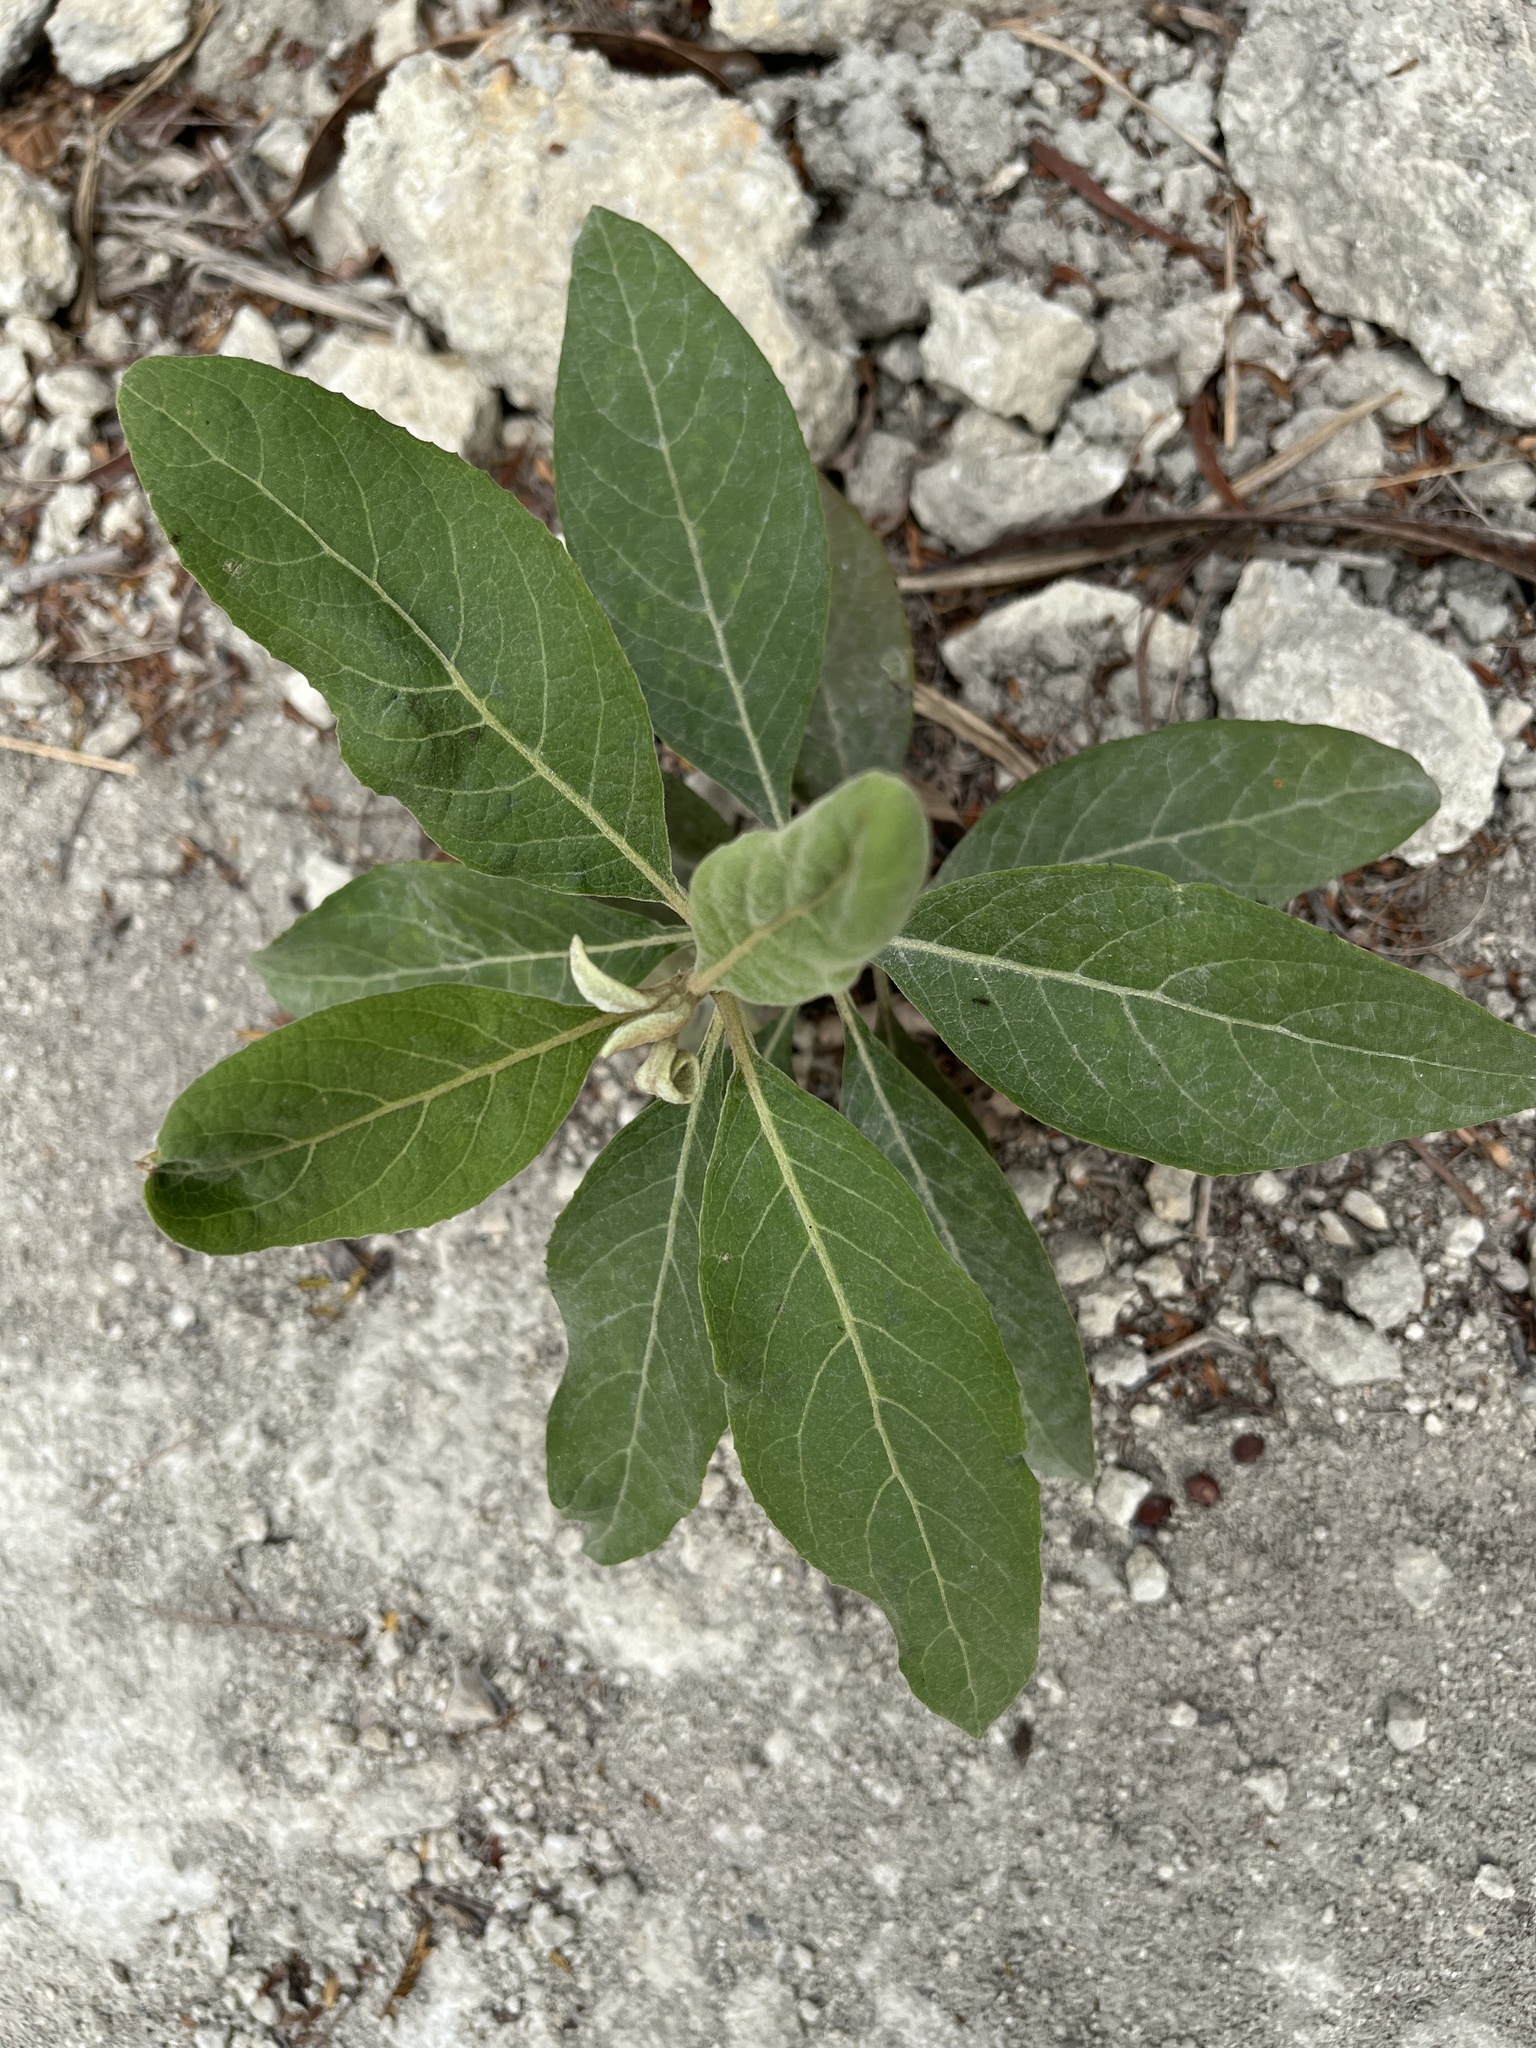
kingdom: Plantae
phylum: Tracheophyta
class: Magnoliopsida
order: Asterales
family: Asteraceae
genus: Pluchea
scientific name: Pluchea carolinensis
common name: Marsh fleabane
